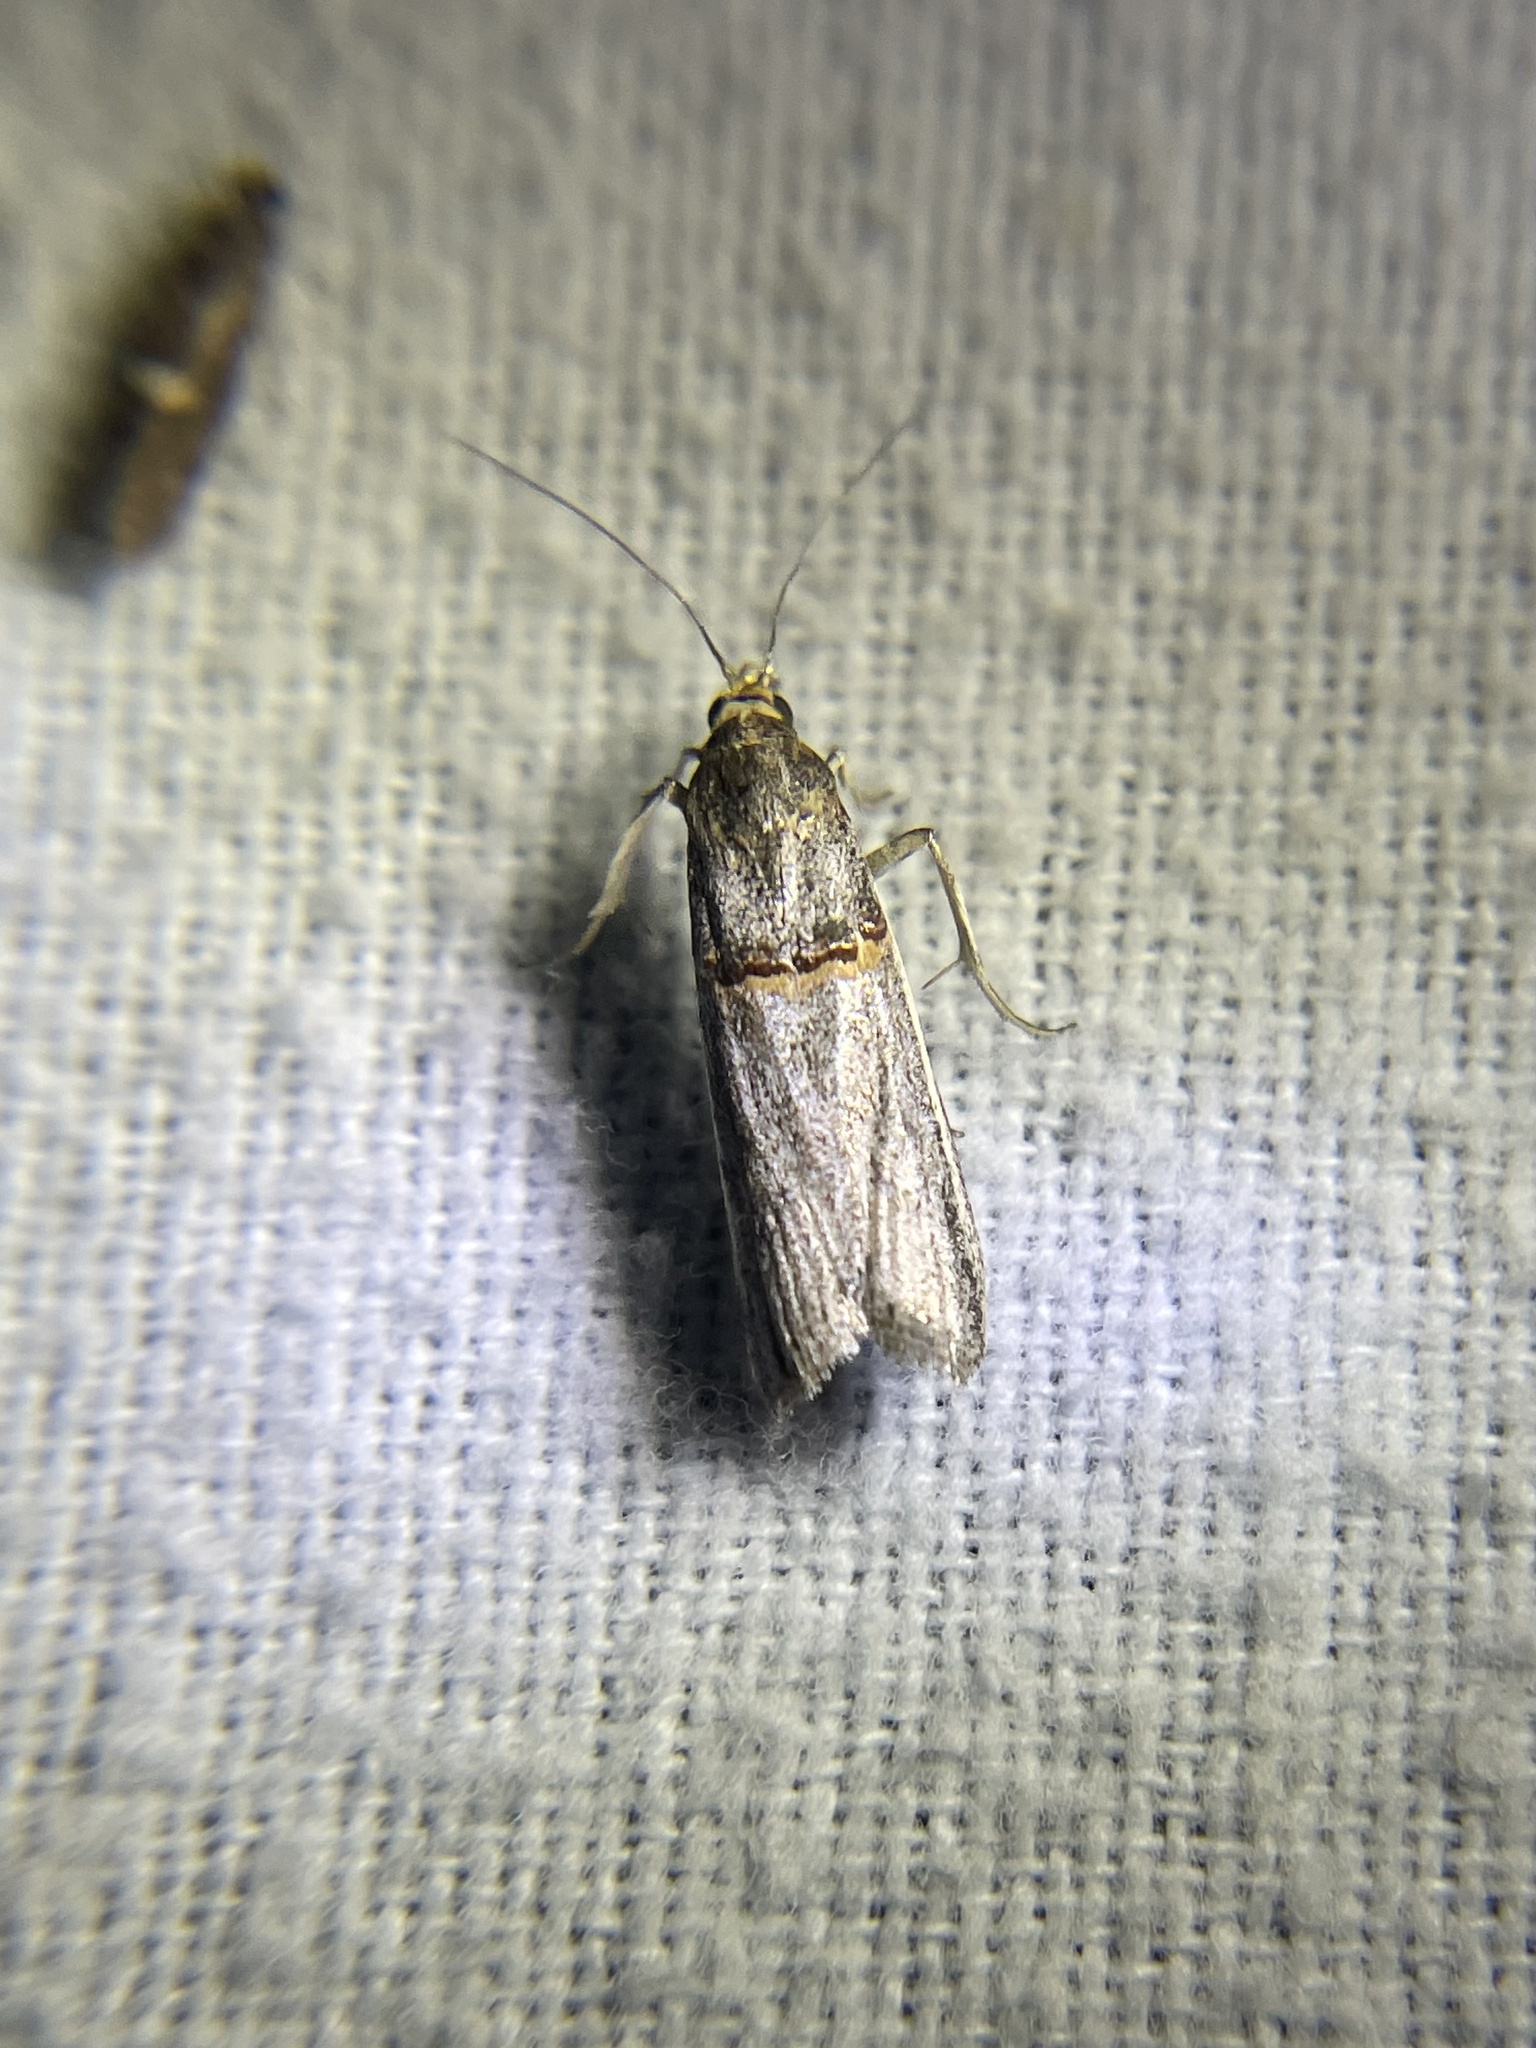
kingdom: Animalia
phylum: Arthropoda
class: Insecta
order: Lepidoptera
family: Pyralidae
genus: Etiella
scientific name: Etiella zinckenella
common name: Gold-banded etiella moth
